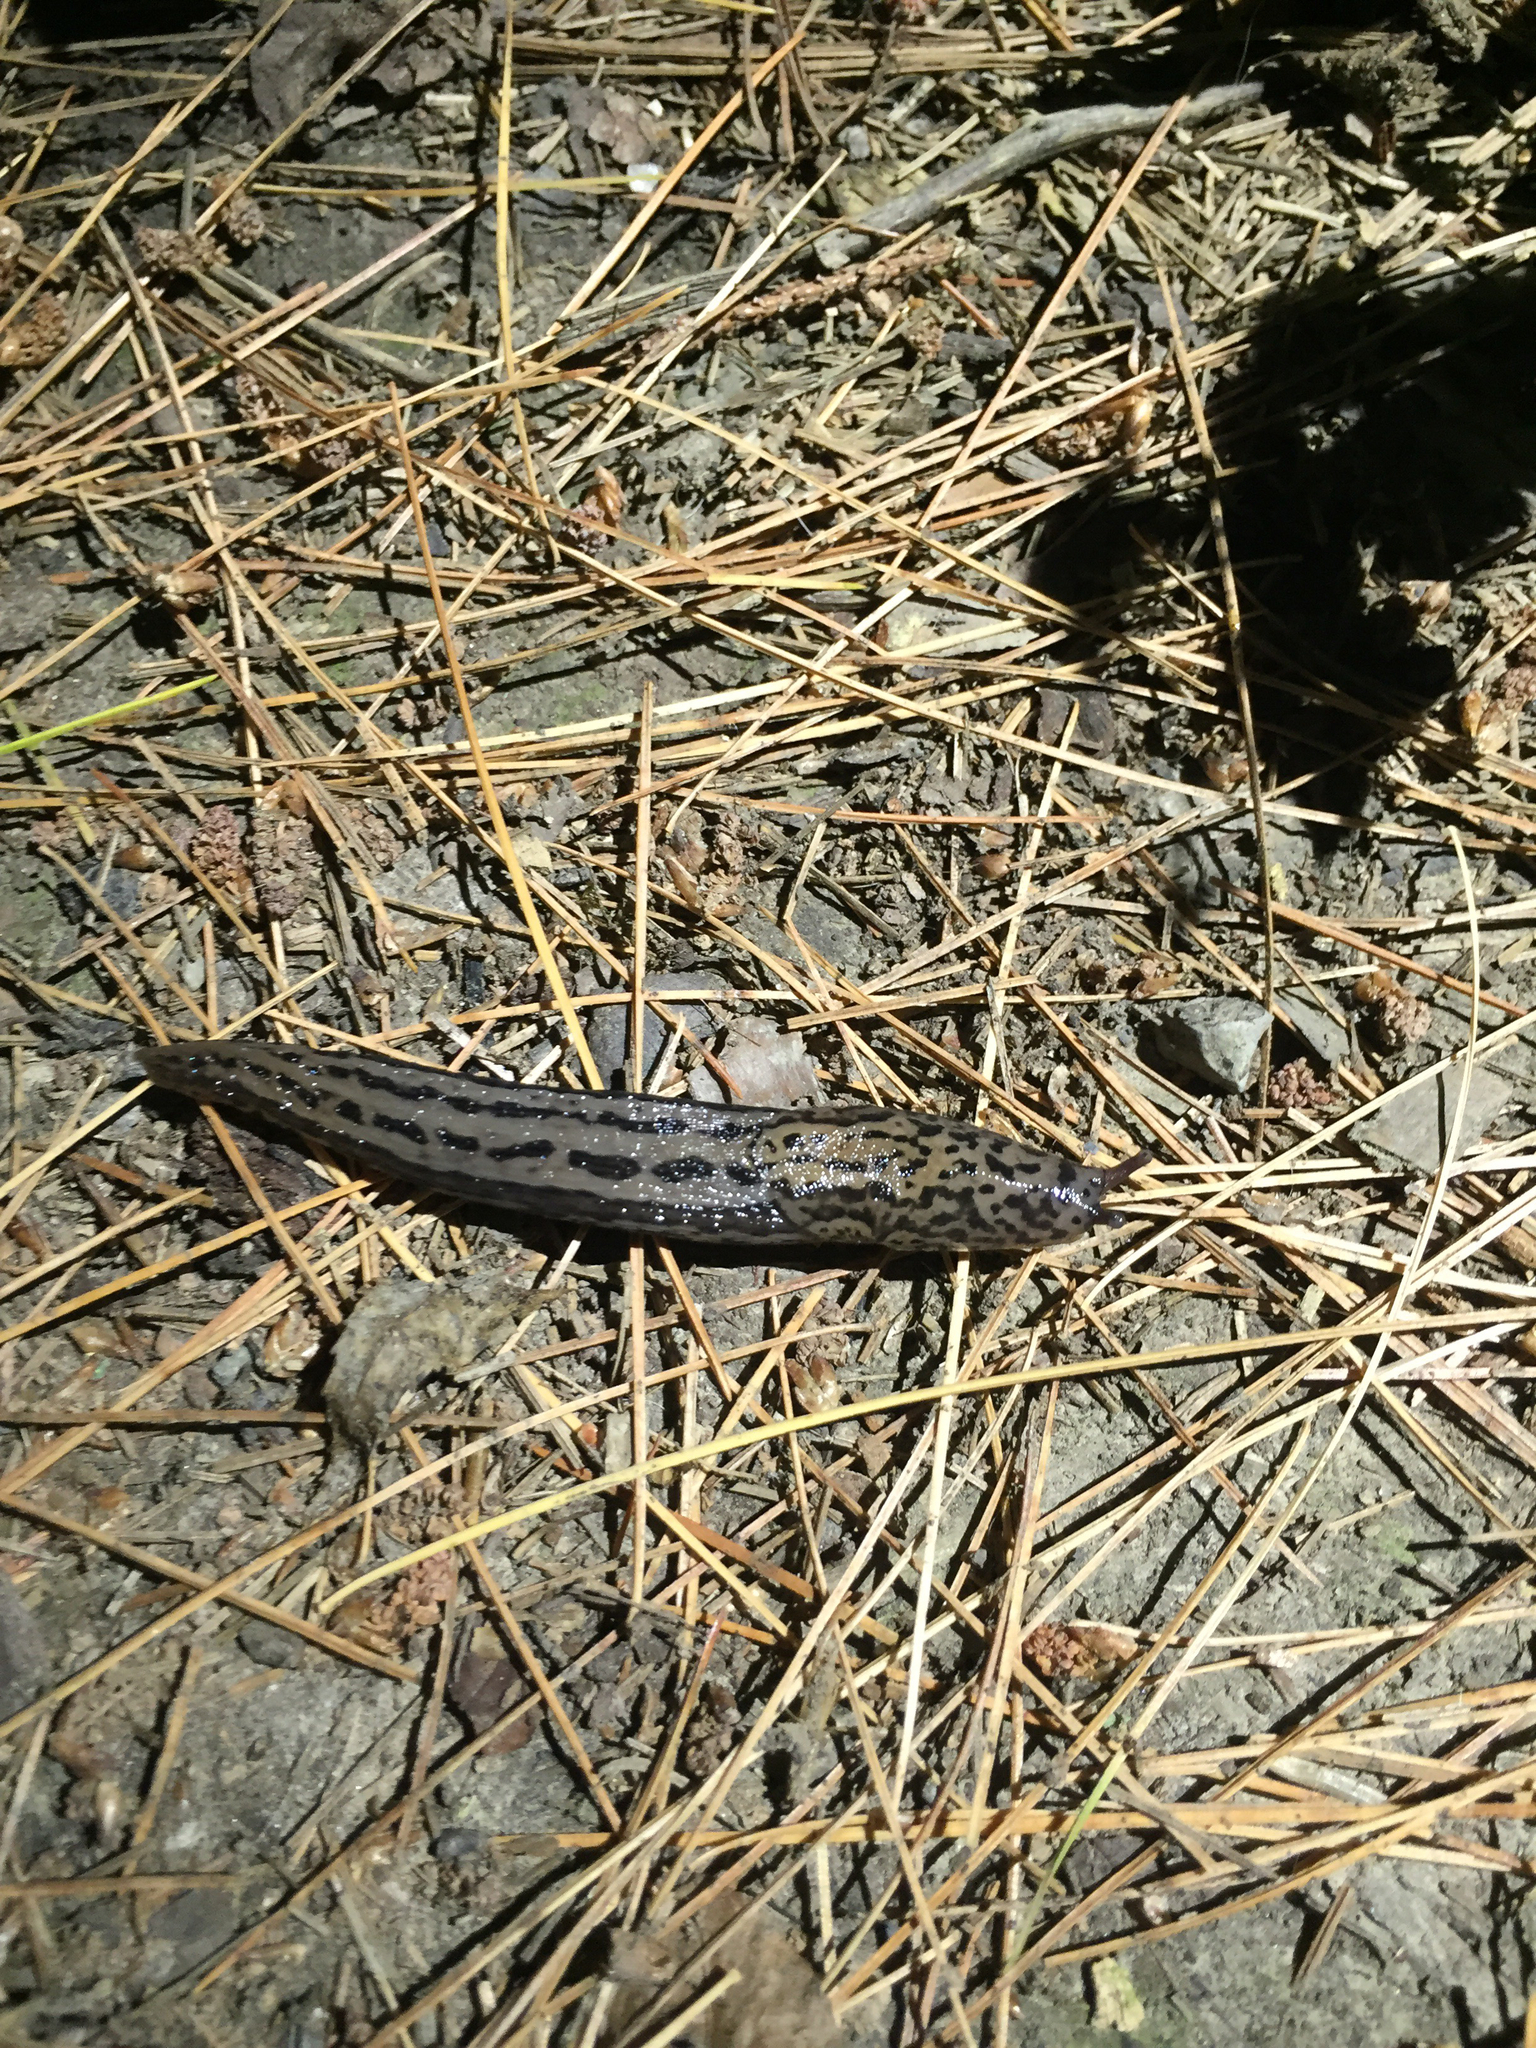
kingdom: Animalia
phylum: Mollusca
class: Gastropoda
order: Stylommatophora
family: Limacidae
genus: Limax
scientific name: Limax maximus
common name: Great grey slug
